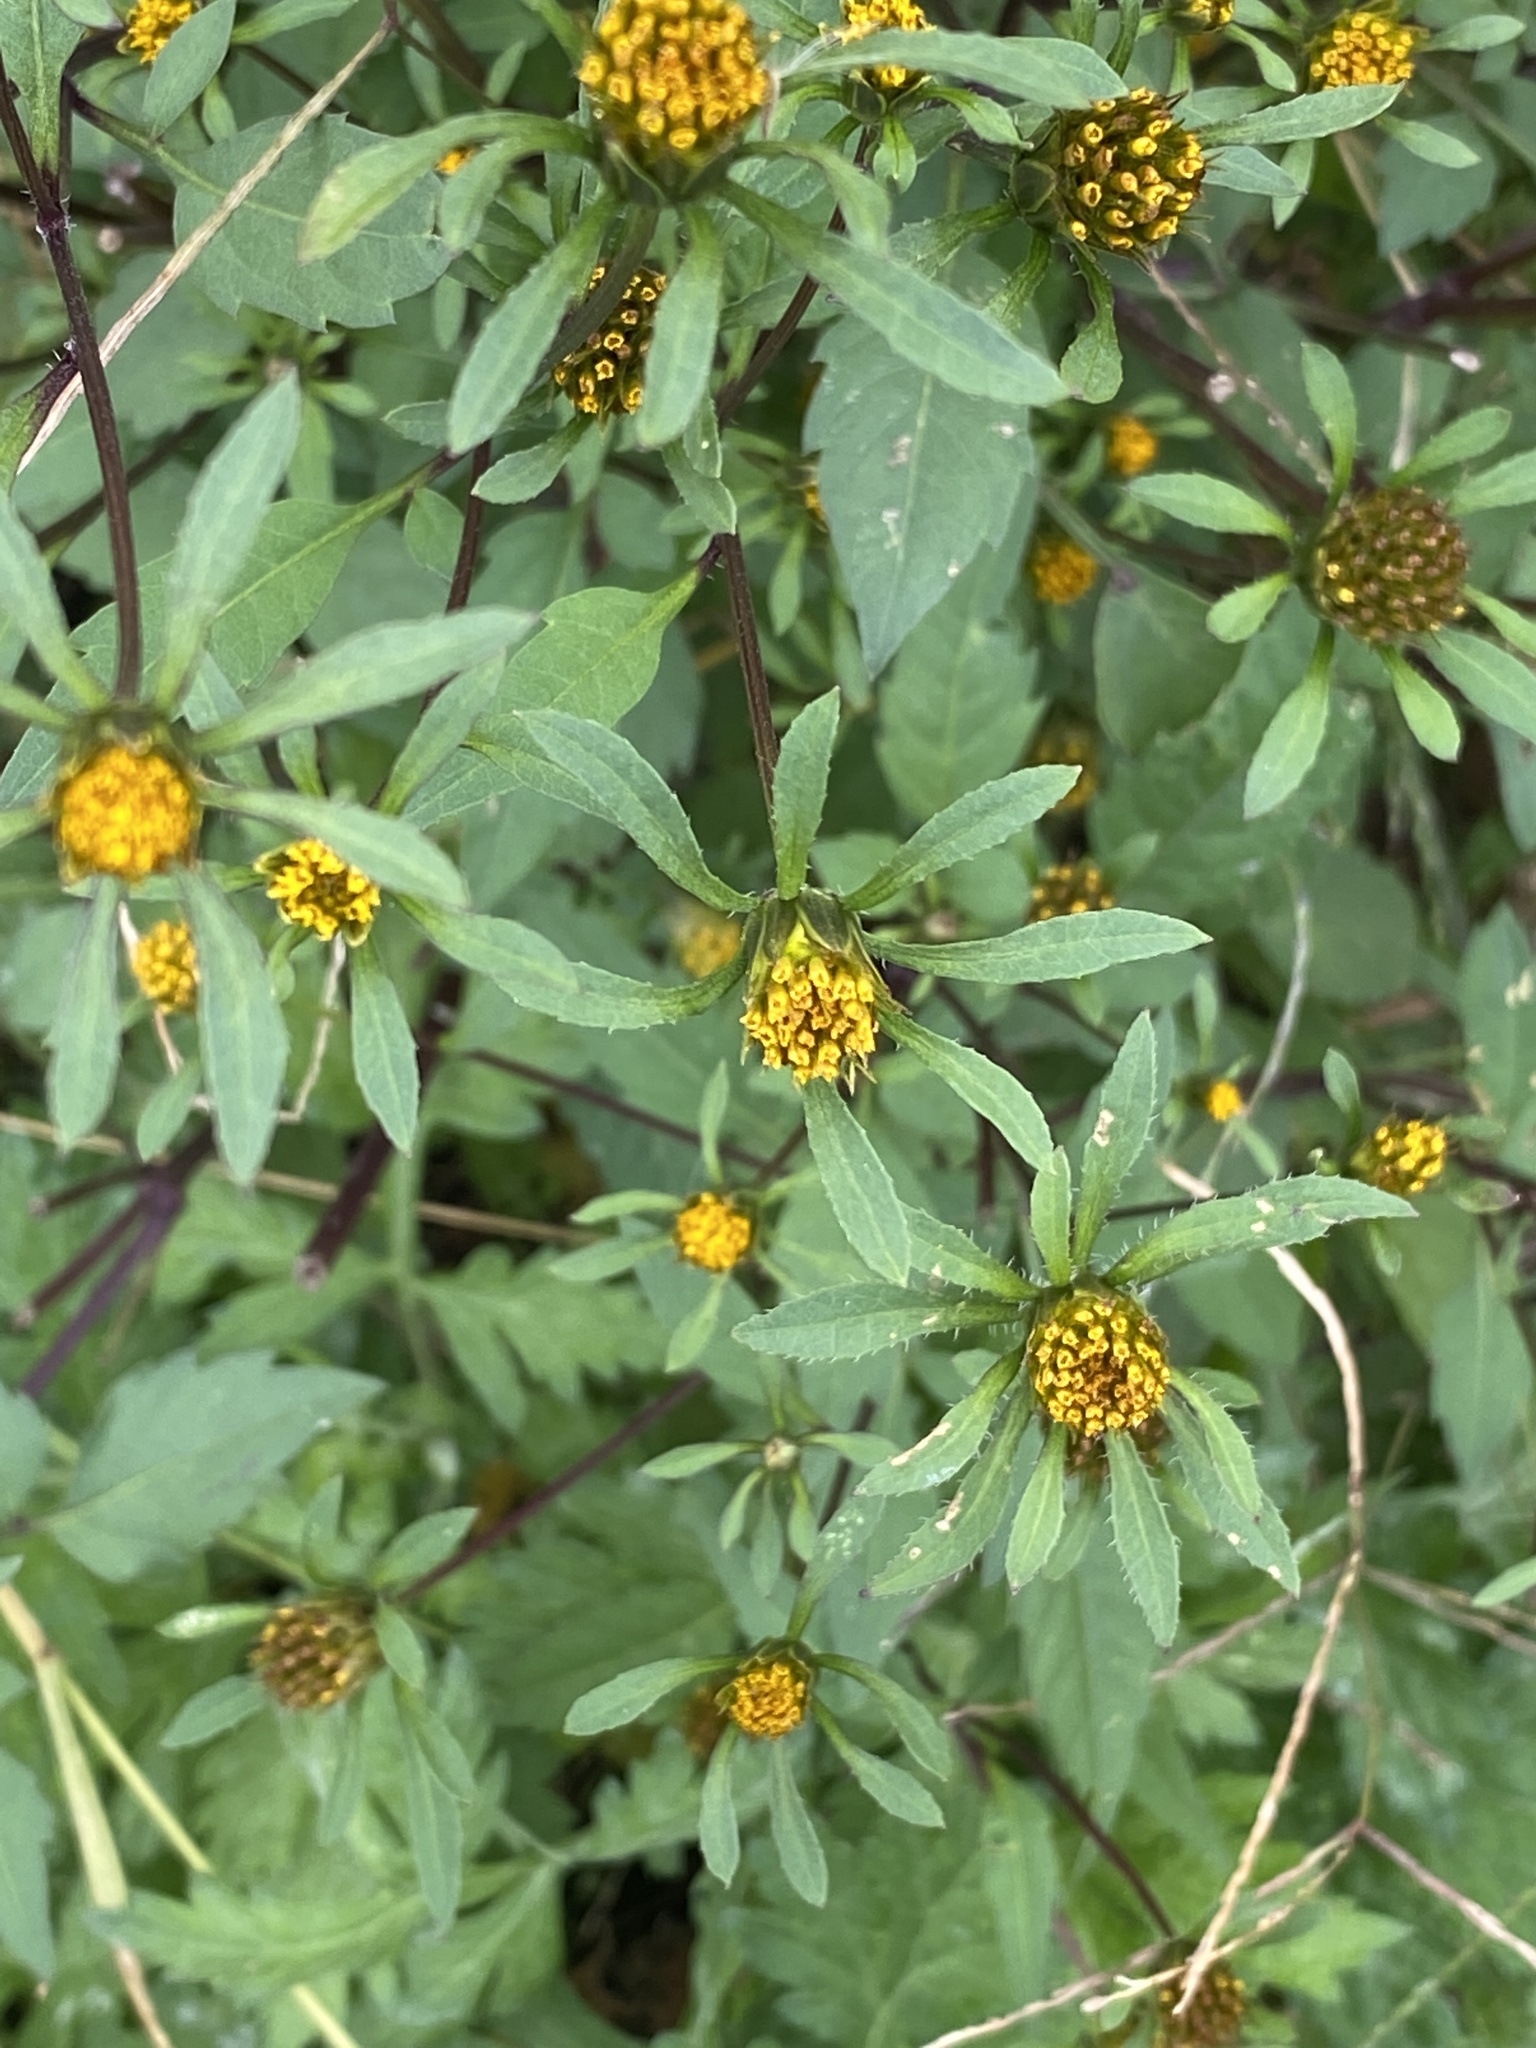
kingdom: Plantae
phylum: Tracheophyta
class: Magnoliopsida
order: Asterales
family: Asteraceae
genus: Bidens
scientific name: Bidens frondosa
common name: Beggarticks
